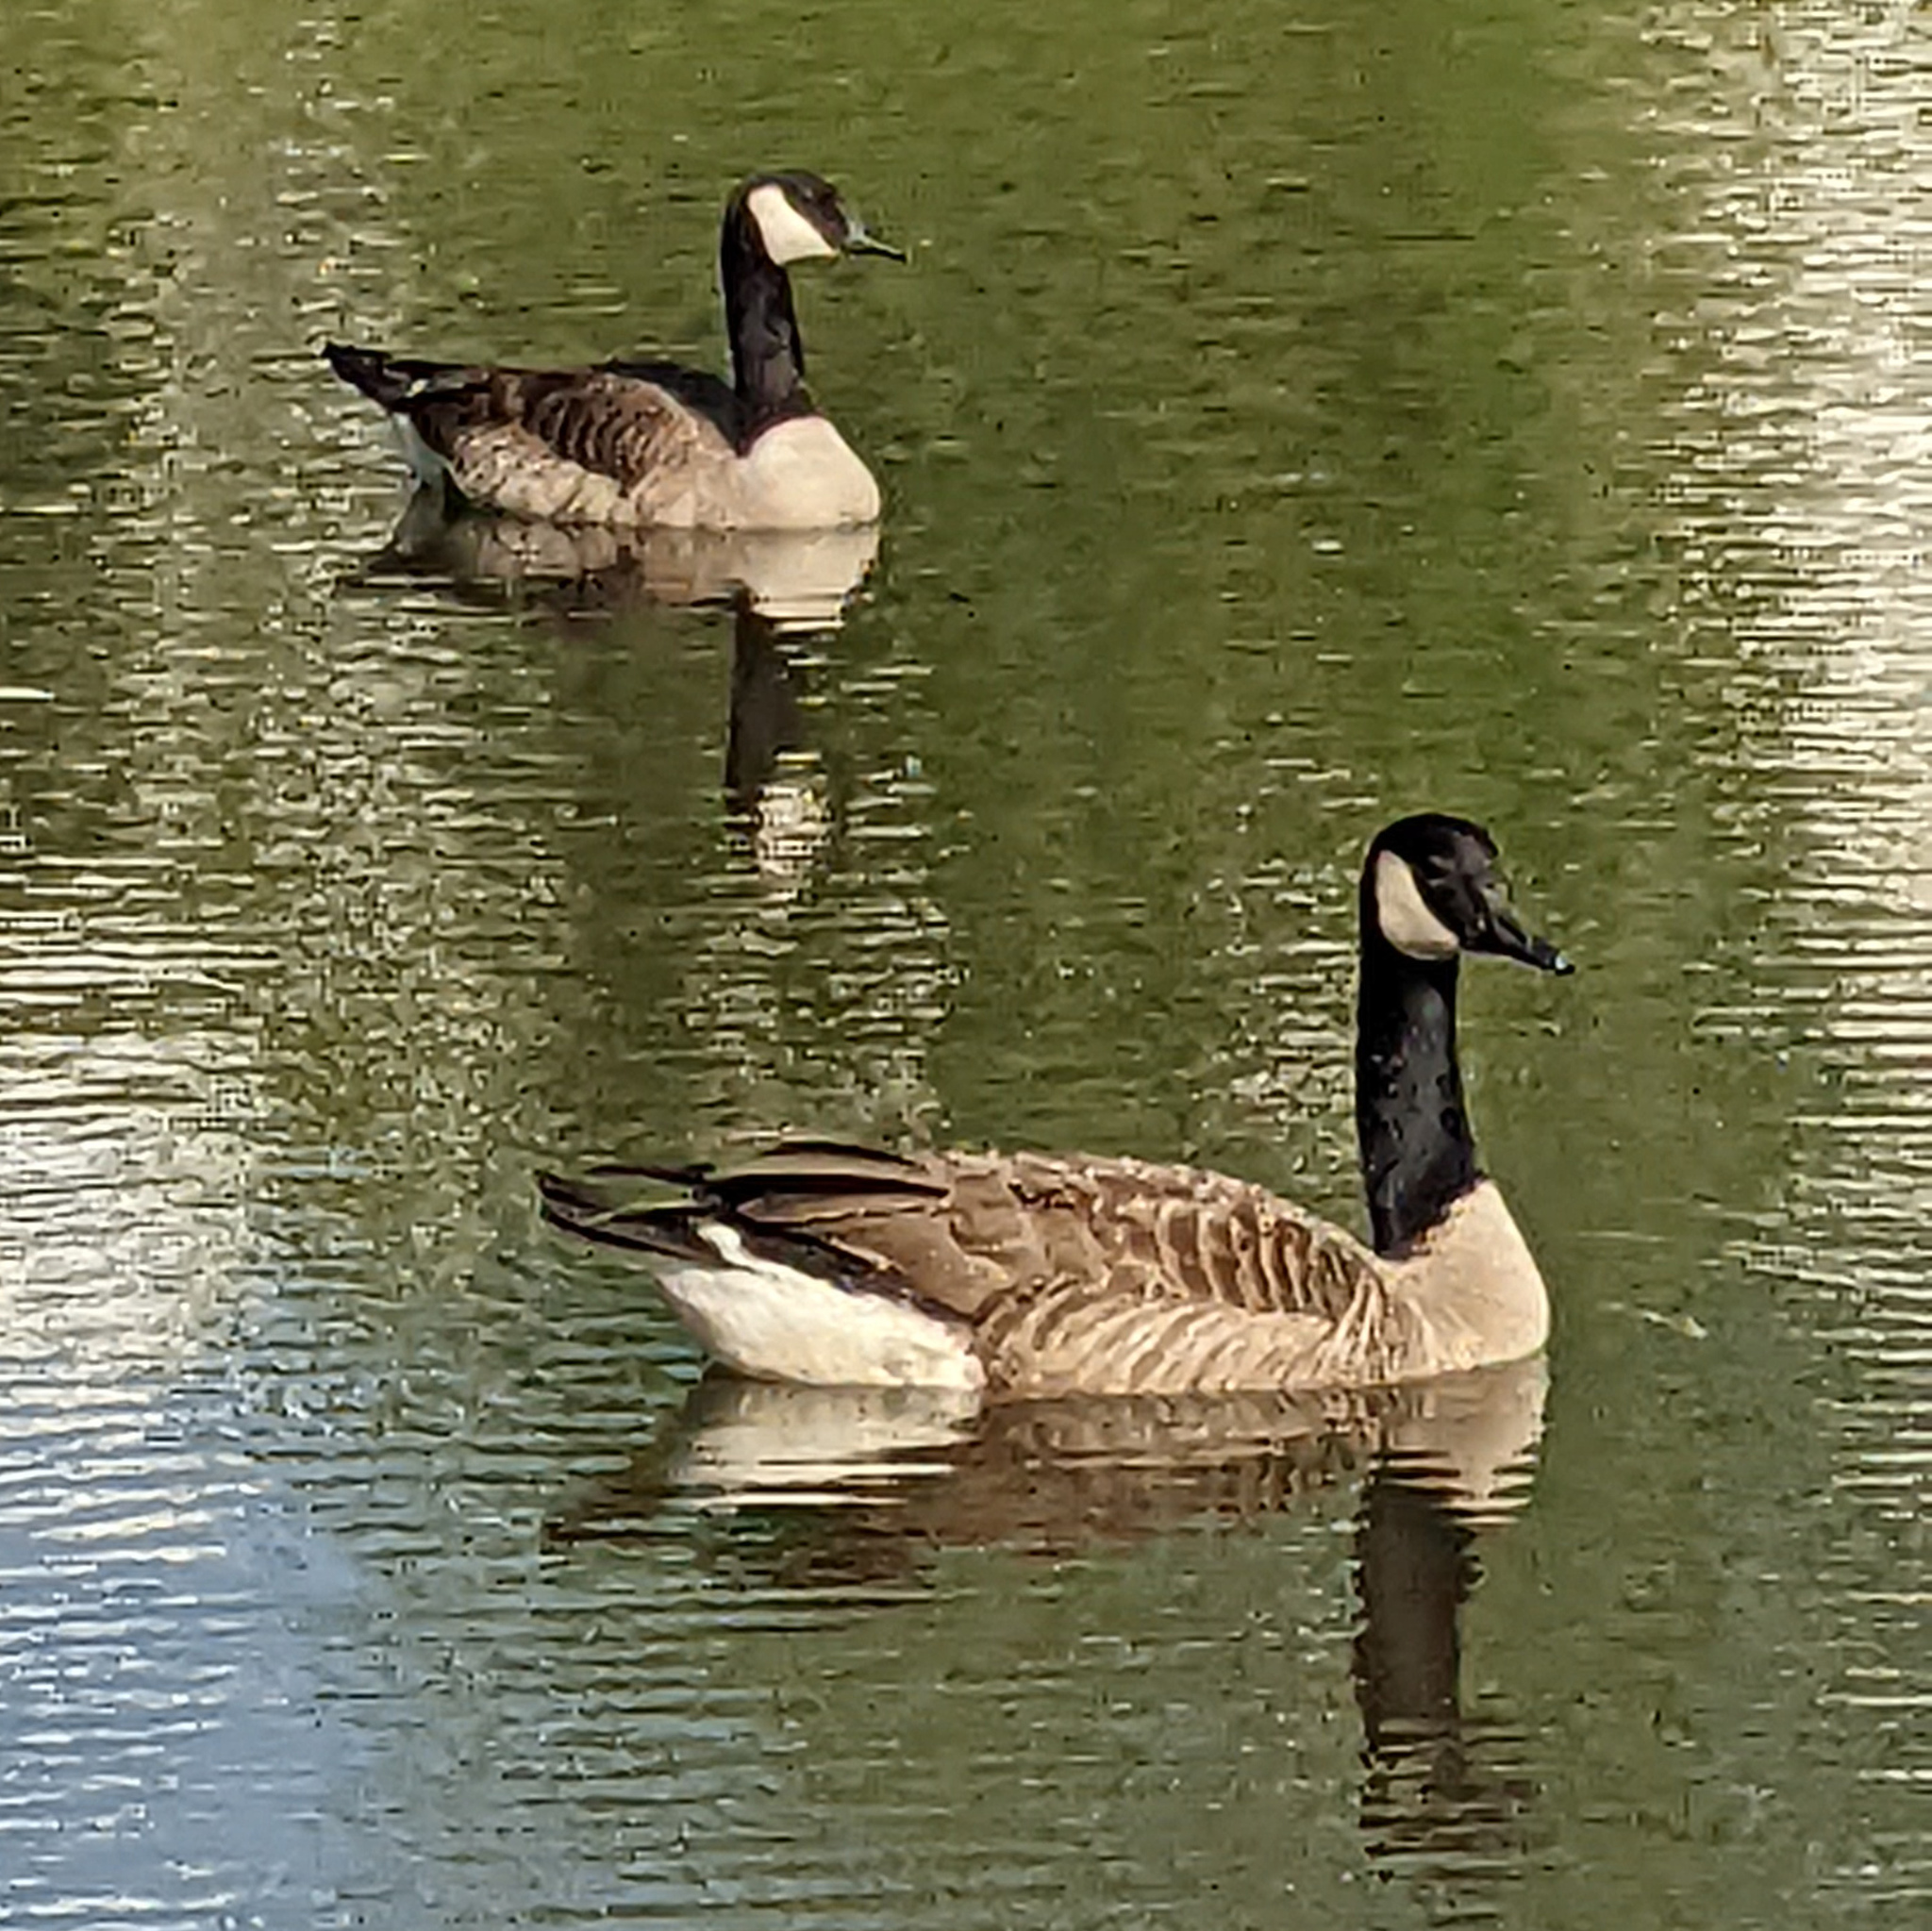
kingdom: Animalia
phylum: Chordata
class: Aves
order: Anseriformes
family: Anatidae
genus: Branta
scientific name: Branta canadensis
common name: Canada goose
